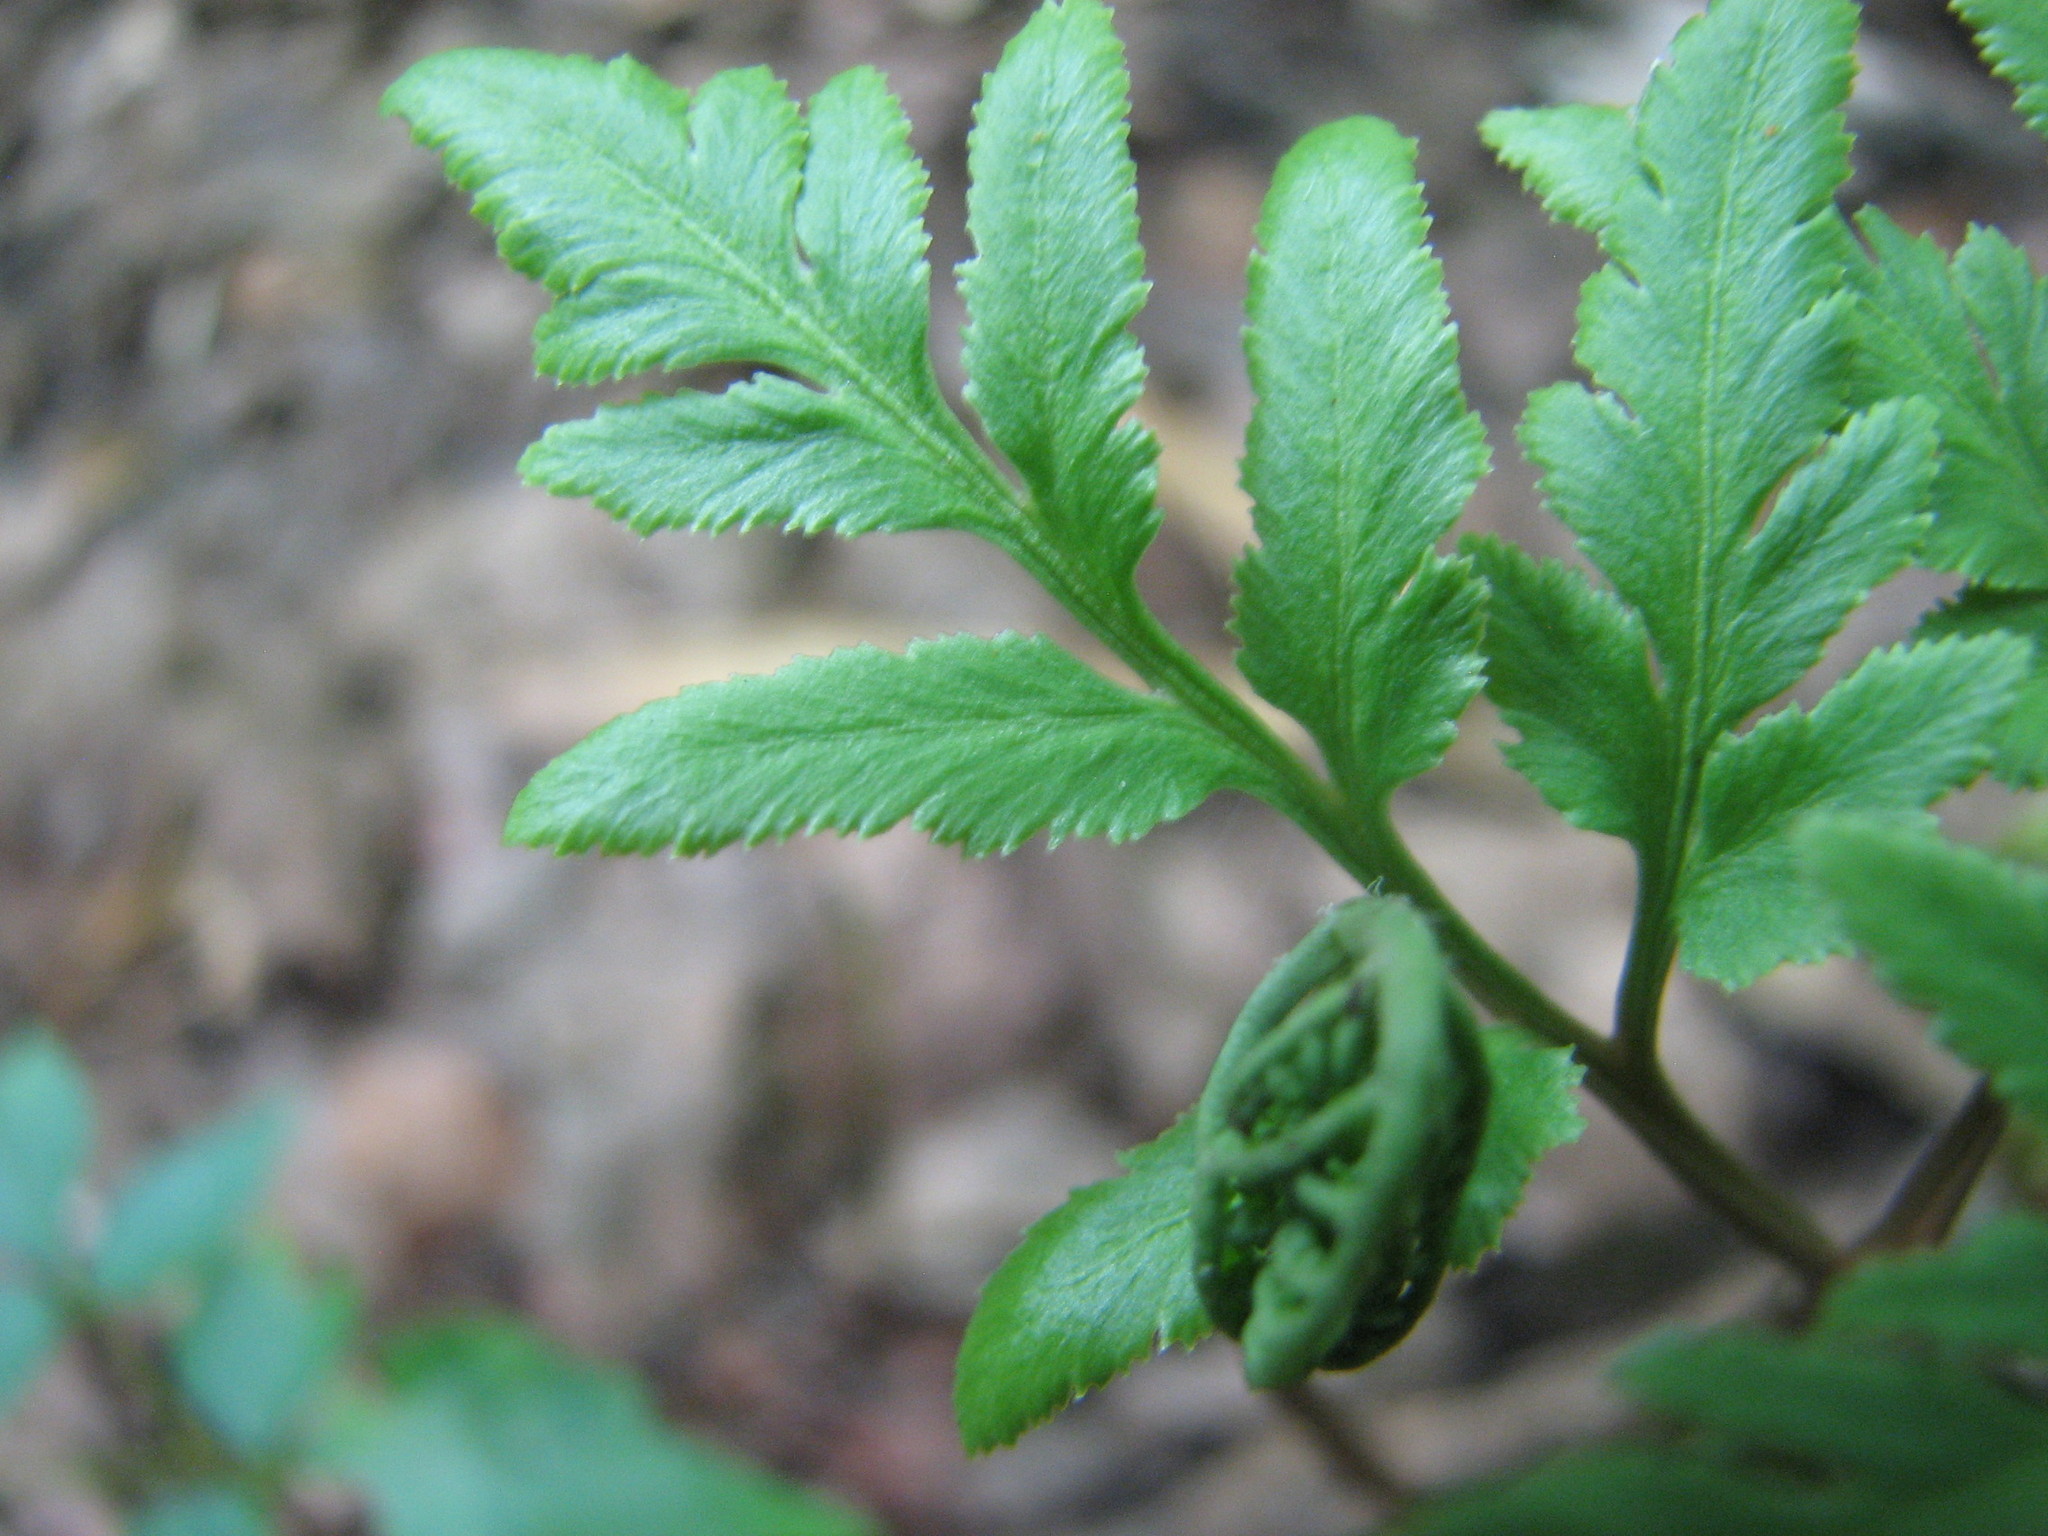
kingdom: Plantae
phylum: Tracheophyta
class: Polypodiopsida
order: Ophioglossales
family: Ophioglossaceae
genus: Sceptridium
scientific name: Sceptridium biternatum
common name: Sparse-lobed grapefern
